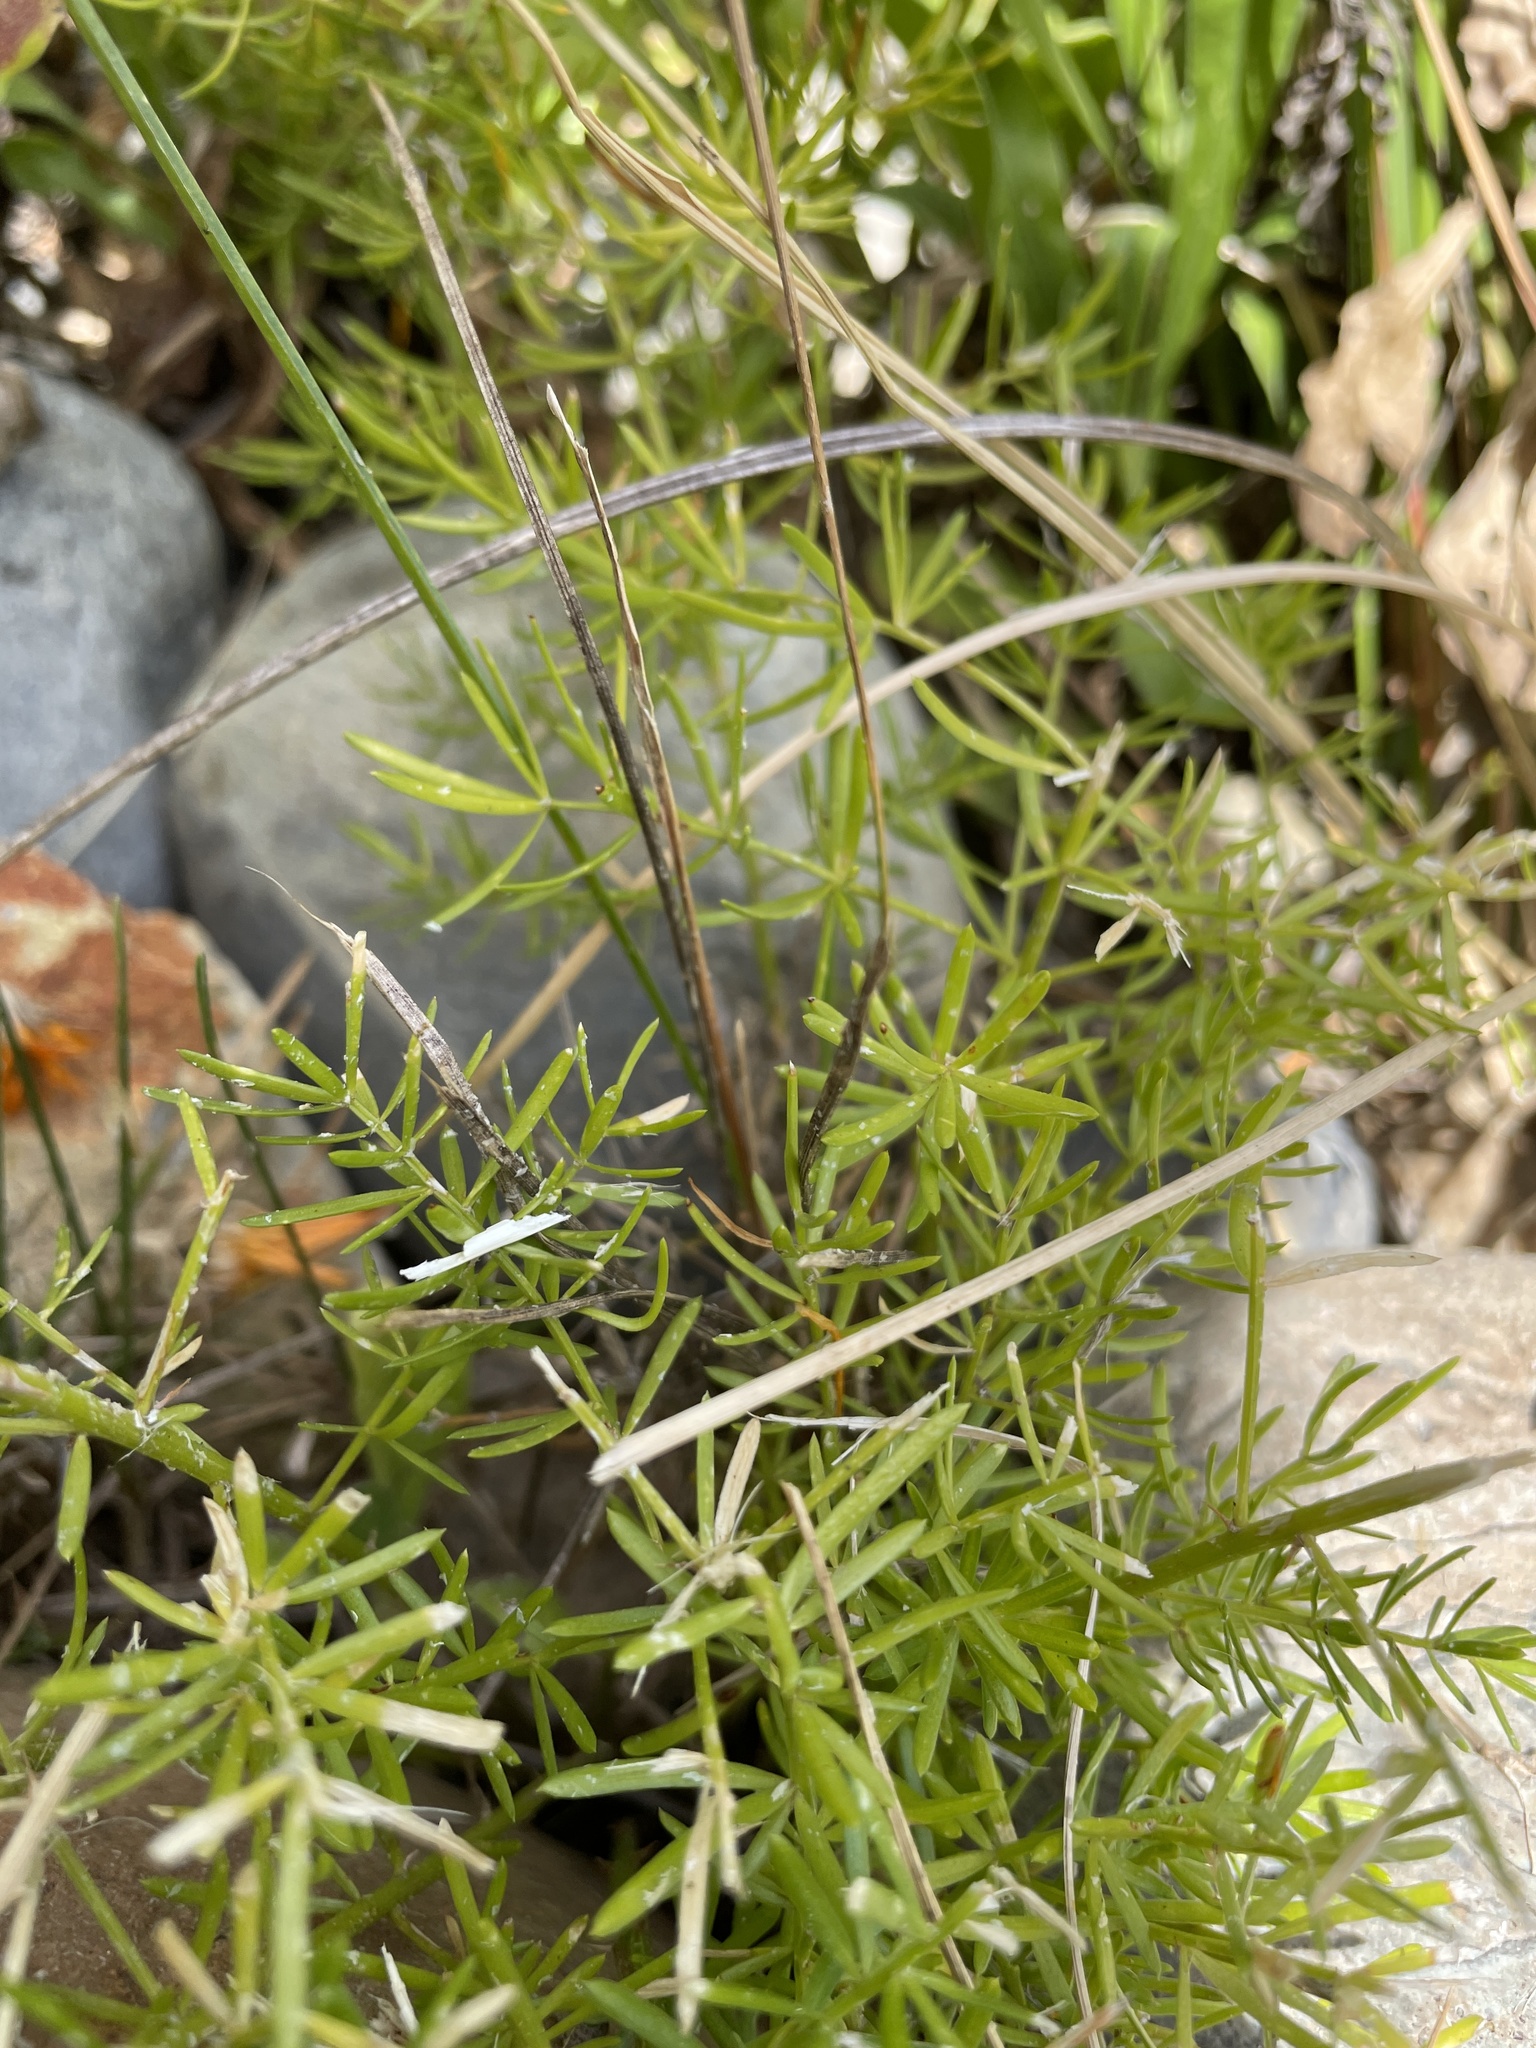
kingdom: Plantae
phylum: Tracheophyta
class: Liliopsida
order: Asparagales
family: Asparagaceae
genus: Asparagus
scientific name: Asparagus aethiopicus
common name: Sprenger's asparagus fern
